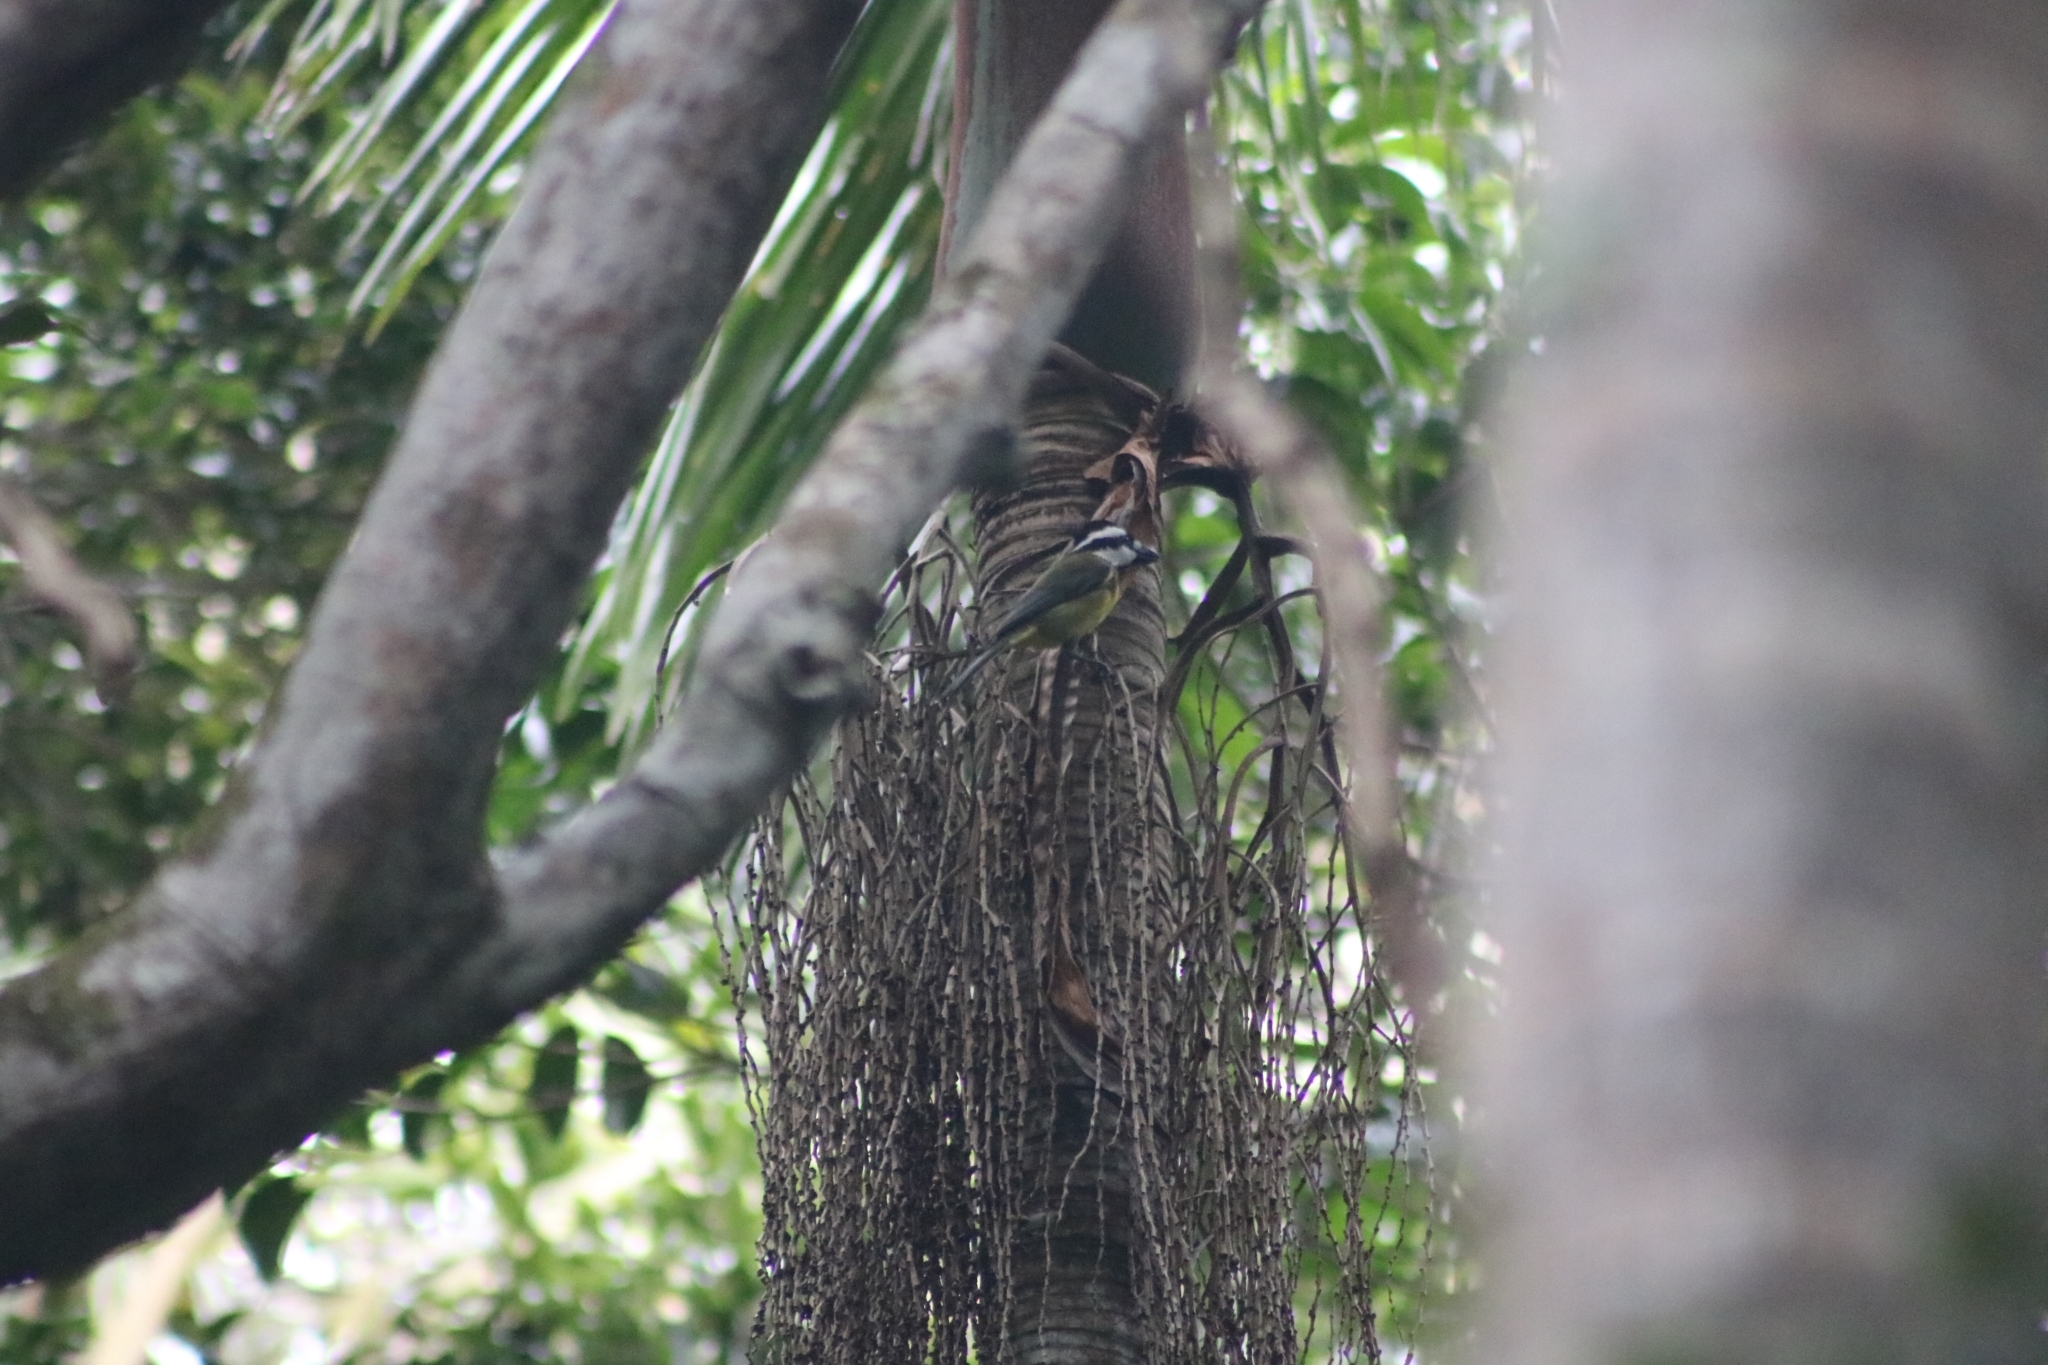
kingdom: Animalia
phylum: Chordata
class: Aves
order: Passeriformes
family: Pachycephalidae
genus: Falcunculus
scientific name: Falcunculus frontatus
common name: Crested shriketit
